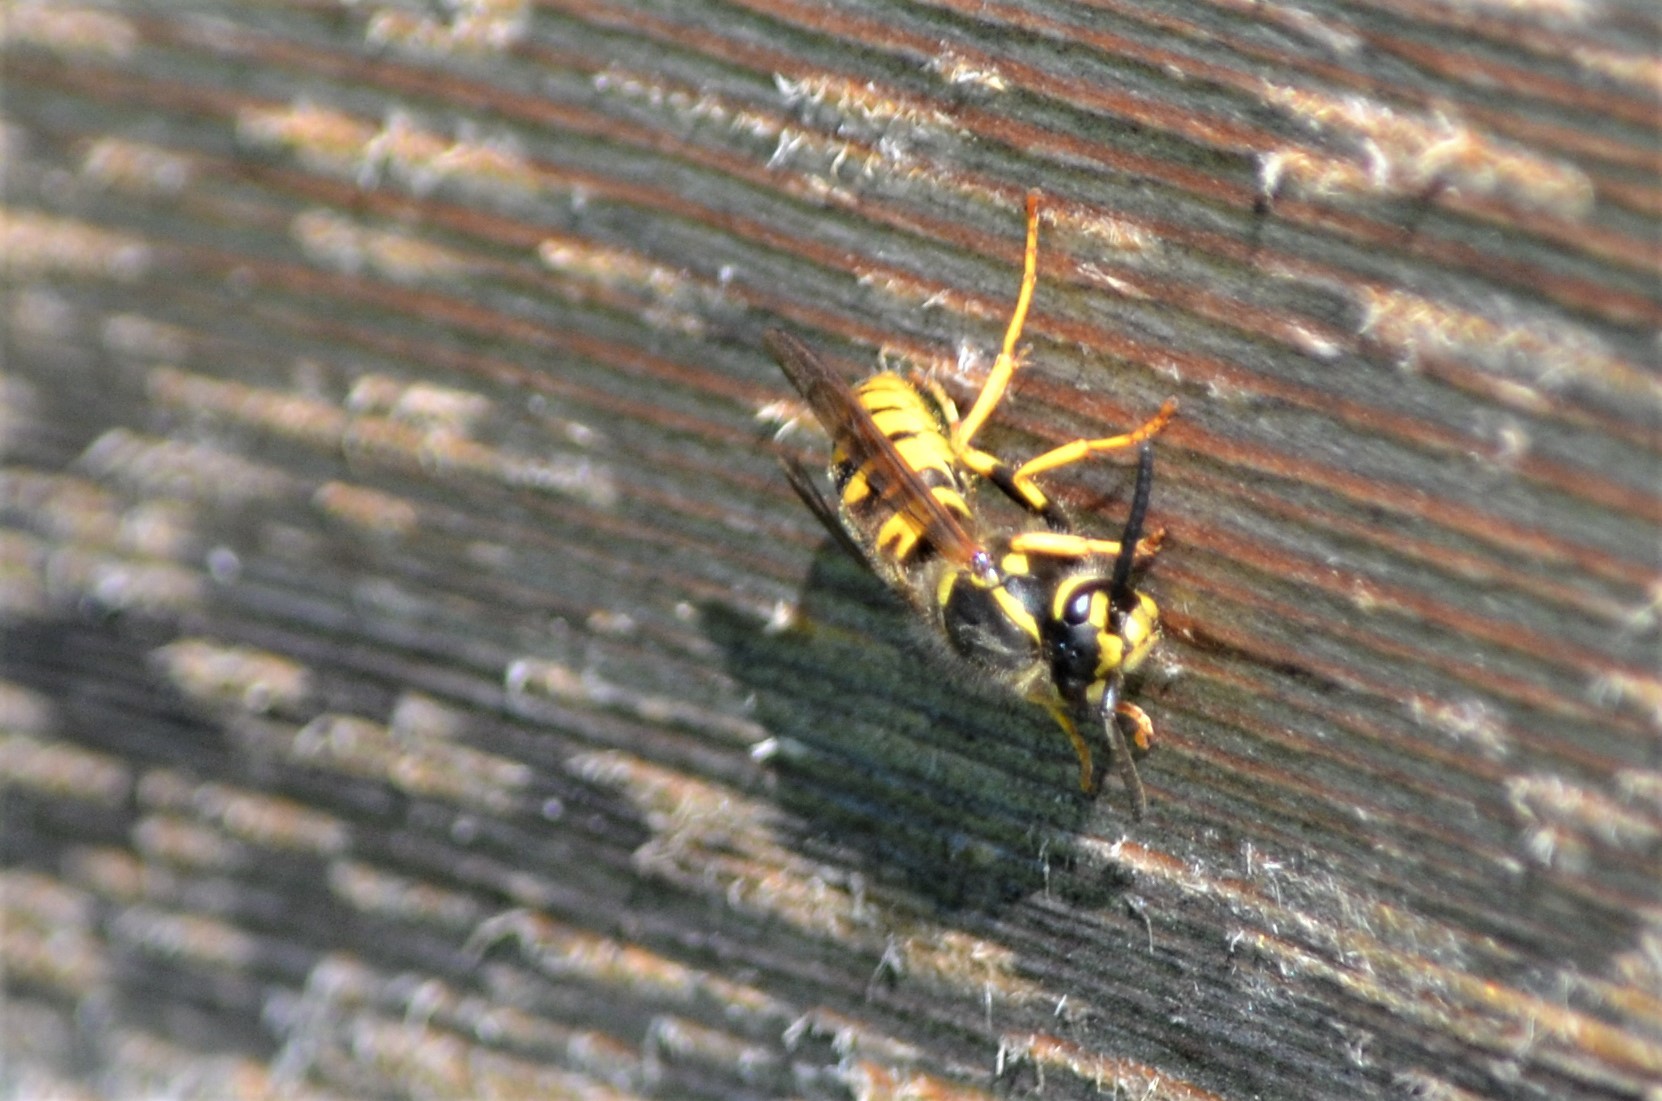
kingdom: Animalia
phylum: Arthropoda
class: Insecta
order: Hymenoptera
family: Vespidae
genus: Vespula
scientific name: Vespula germanica
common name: German wasp
